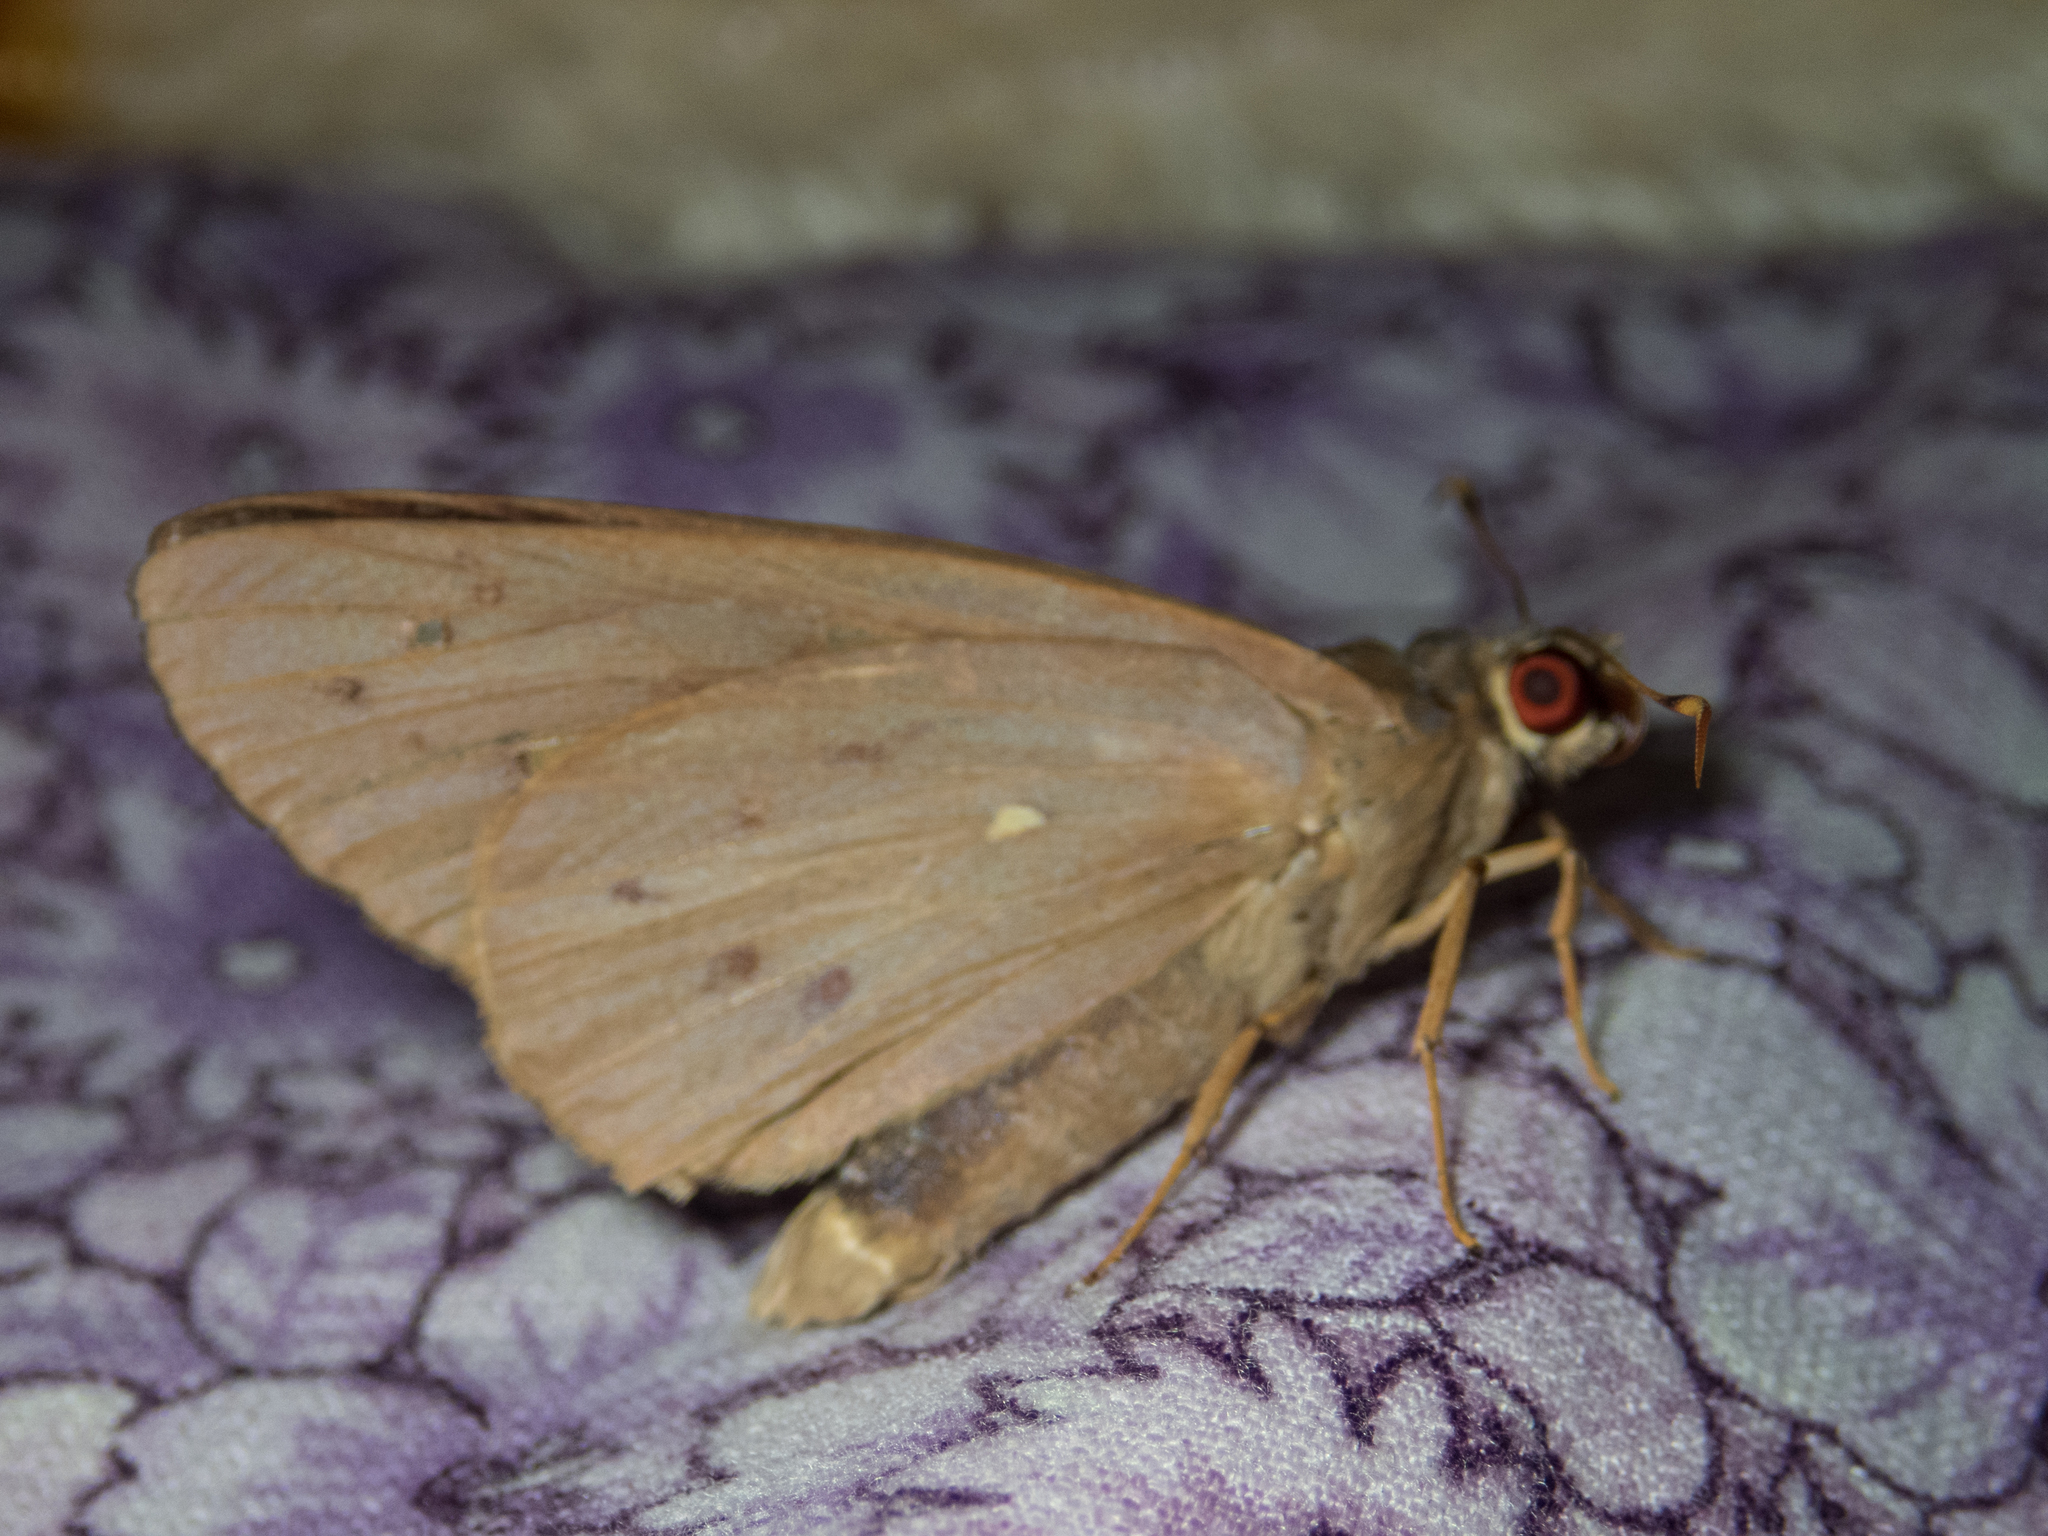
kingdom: Animalia
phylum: Arthropoda
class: Insecta
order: Lepidoptera
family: Hesperiidae
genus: Hidari
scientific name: Hidari irava
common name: Coconut skipper
